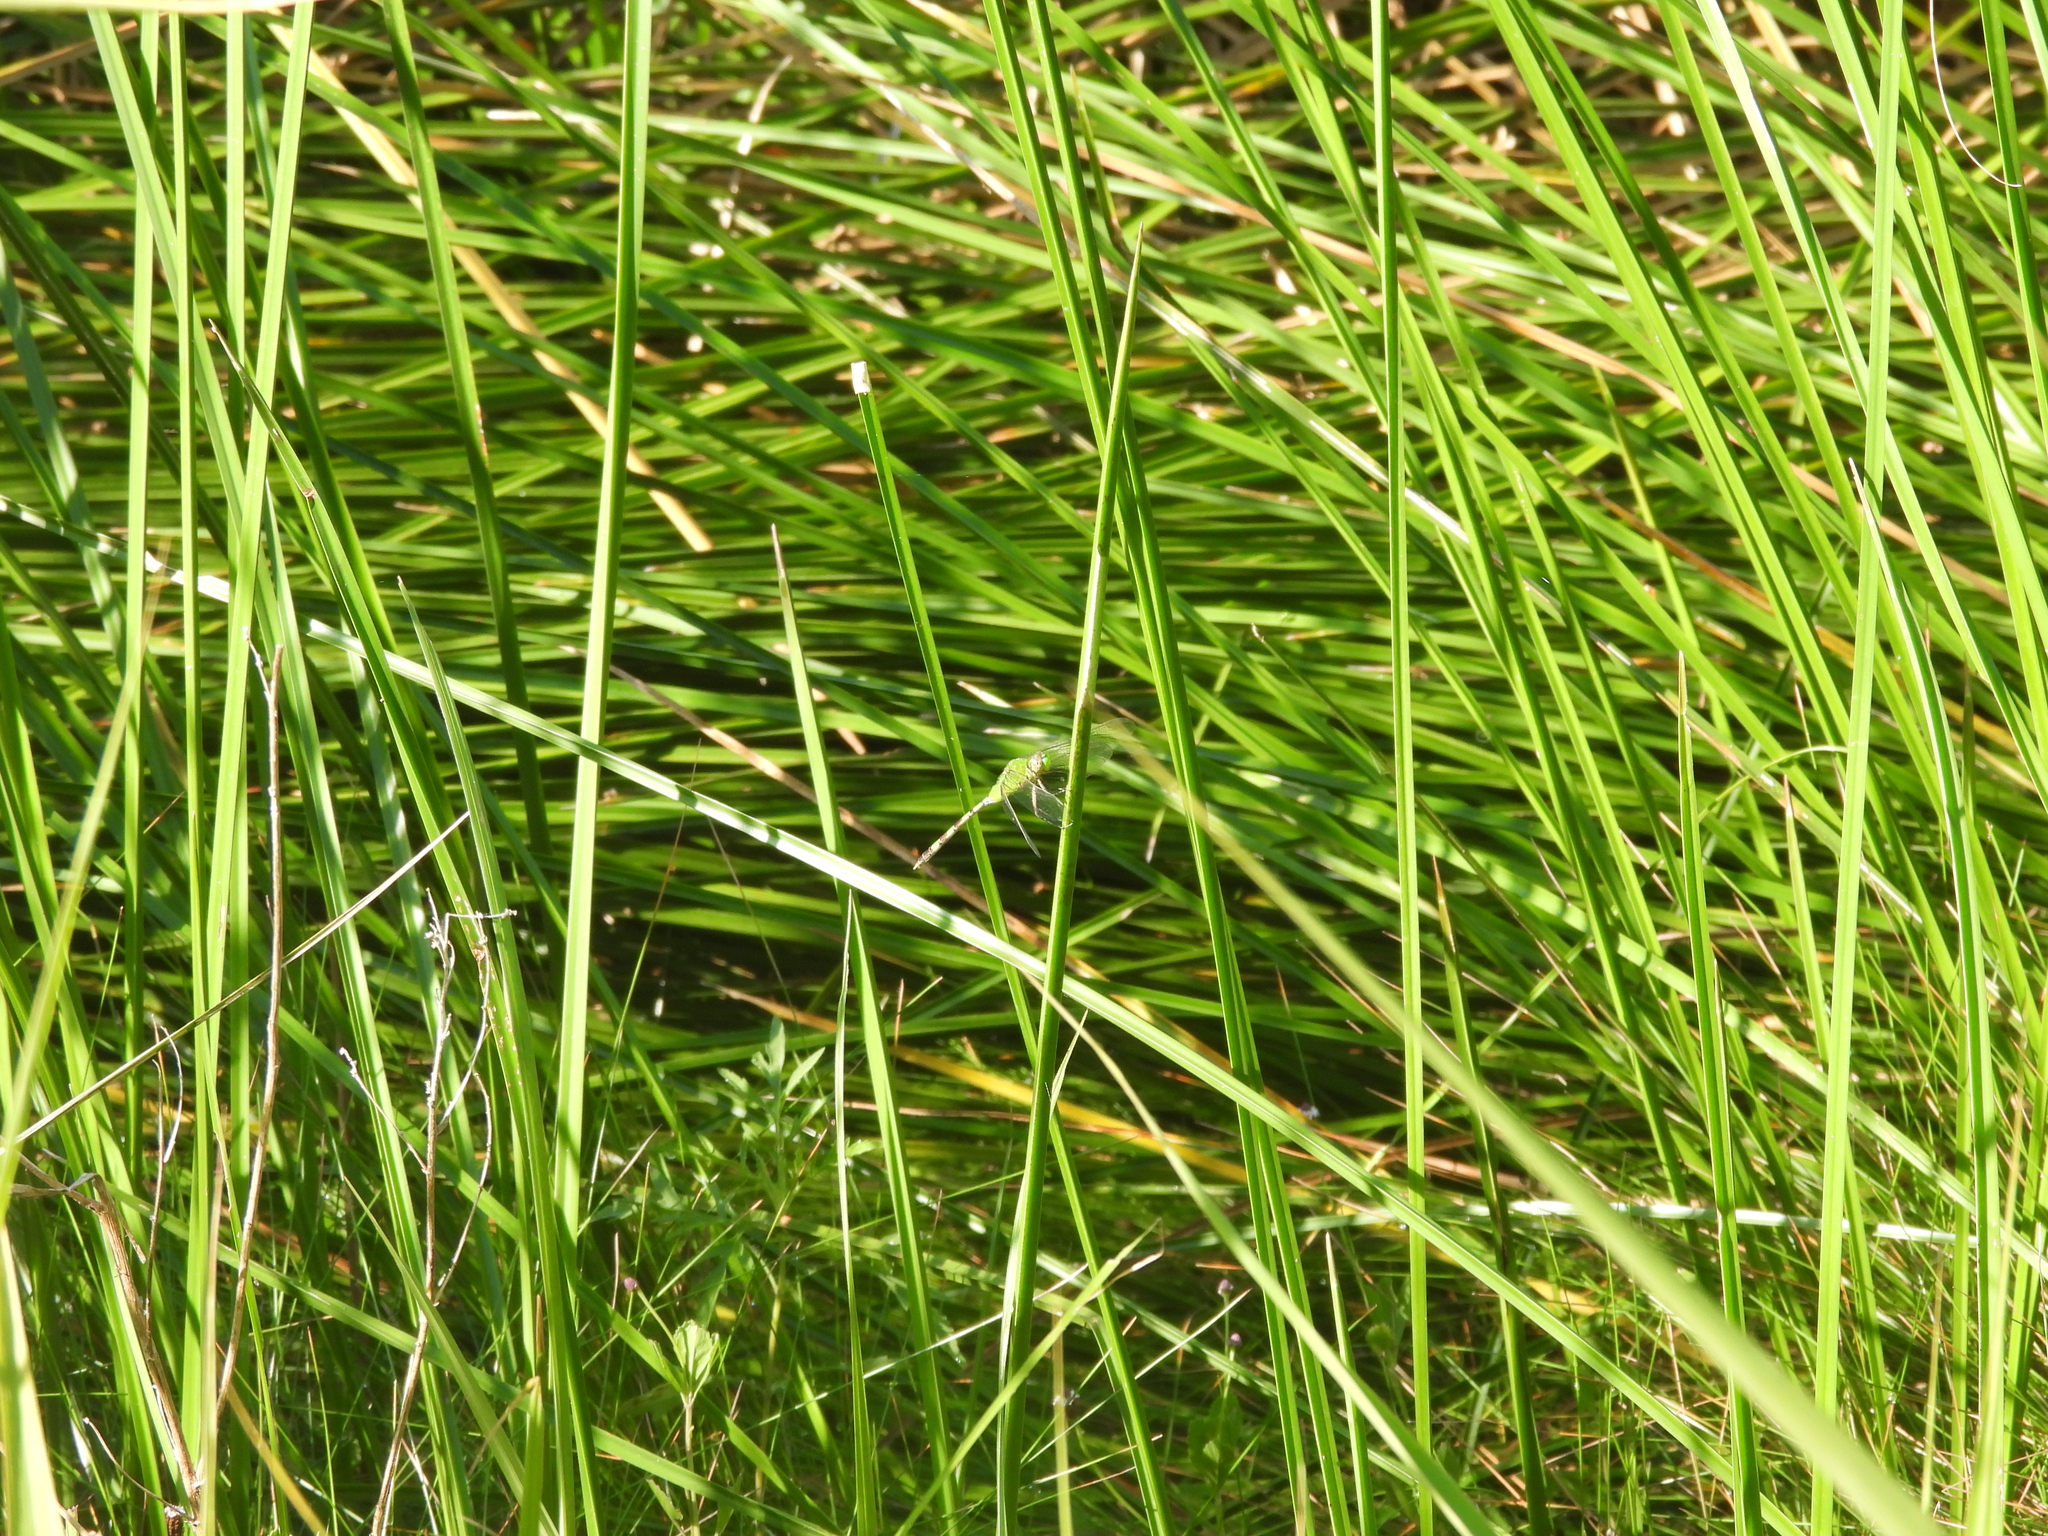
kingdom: Animalia
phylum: Arthropoda
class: Insecta
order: Odonata
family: Libellulidae
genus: Erythemis
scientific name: Erythemis vesiculosa
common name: Great pondhawk
